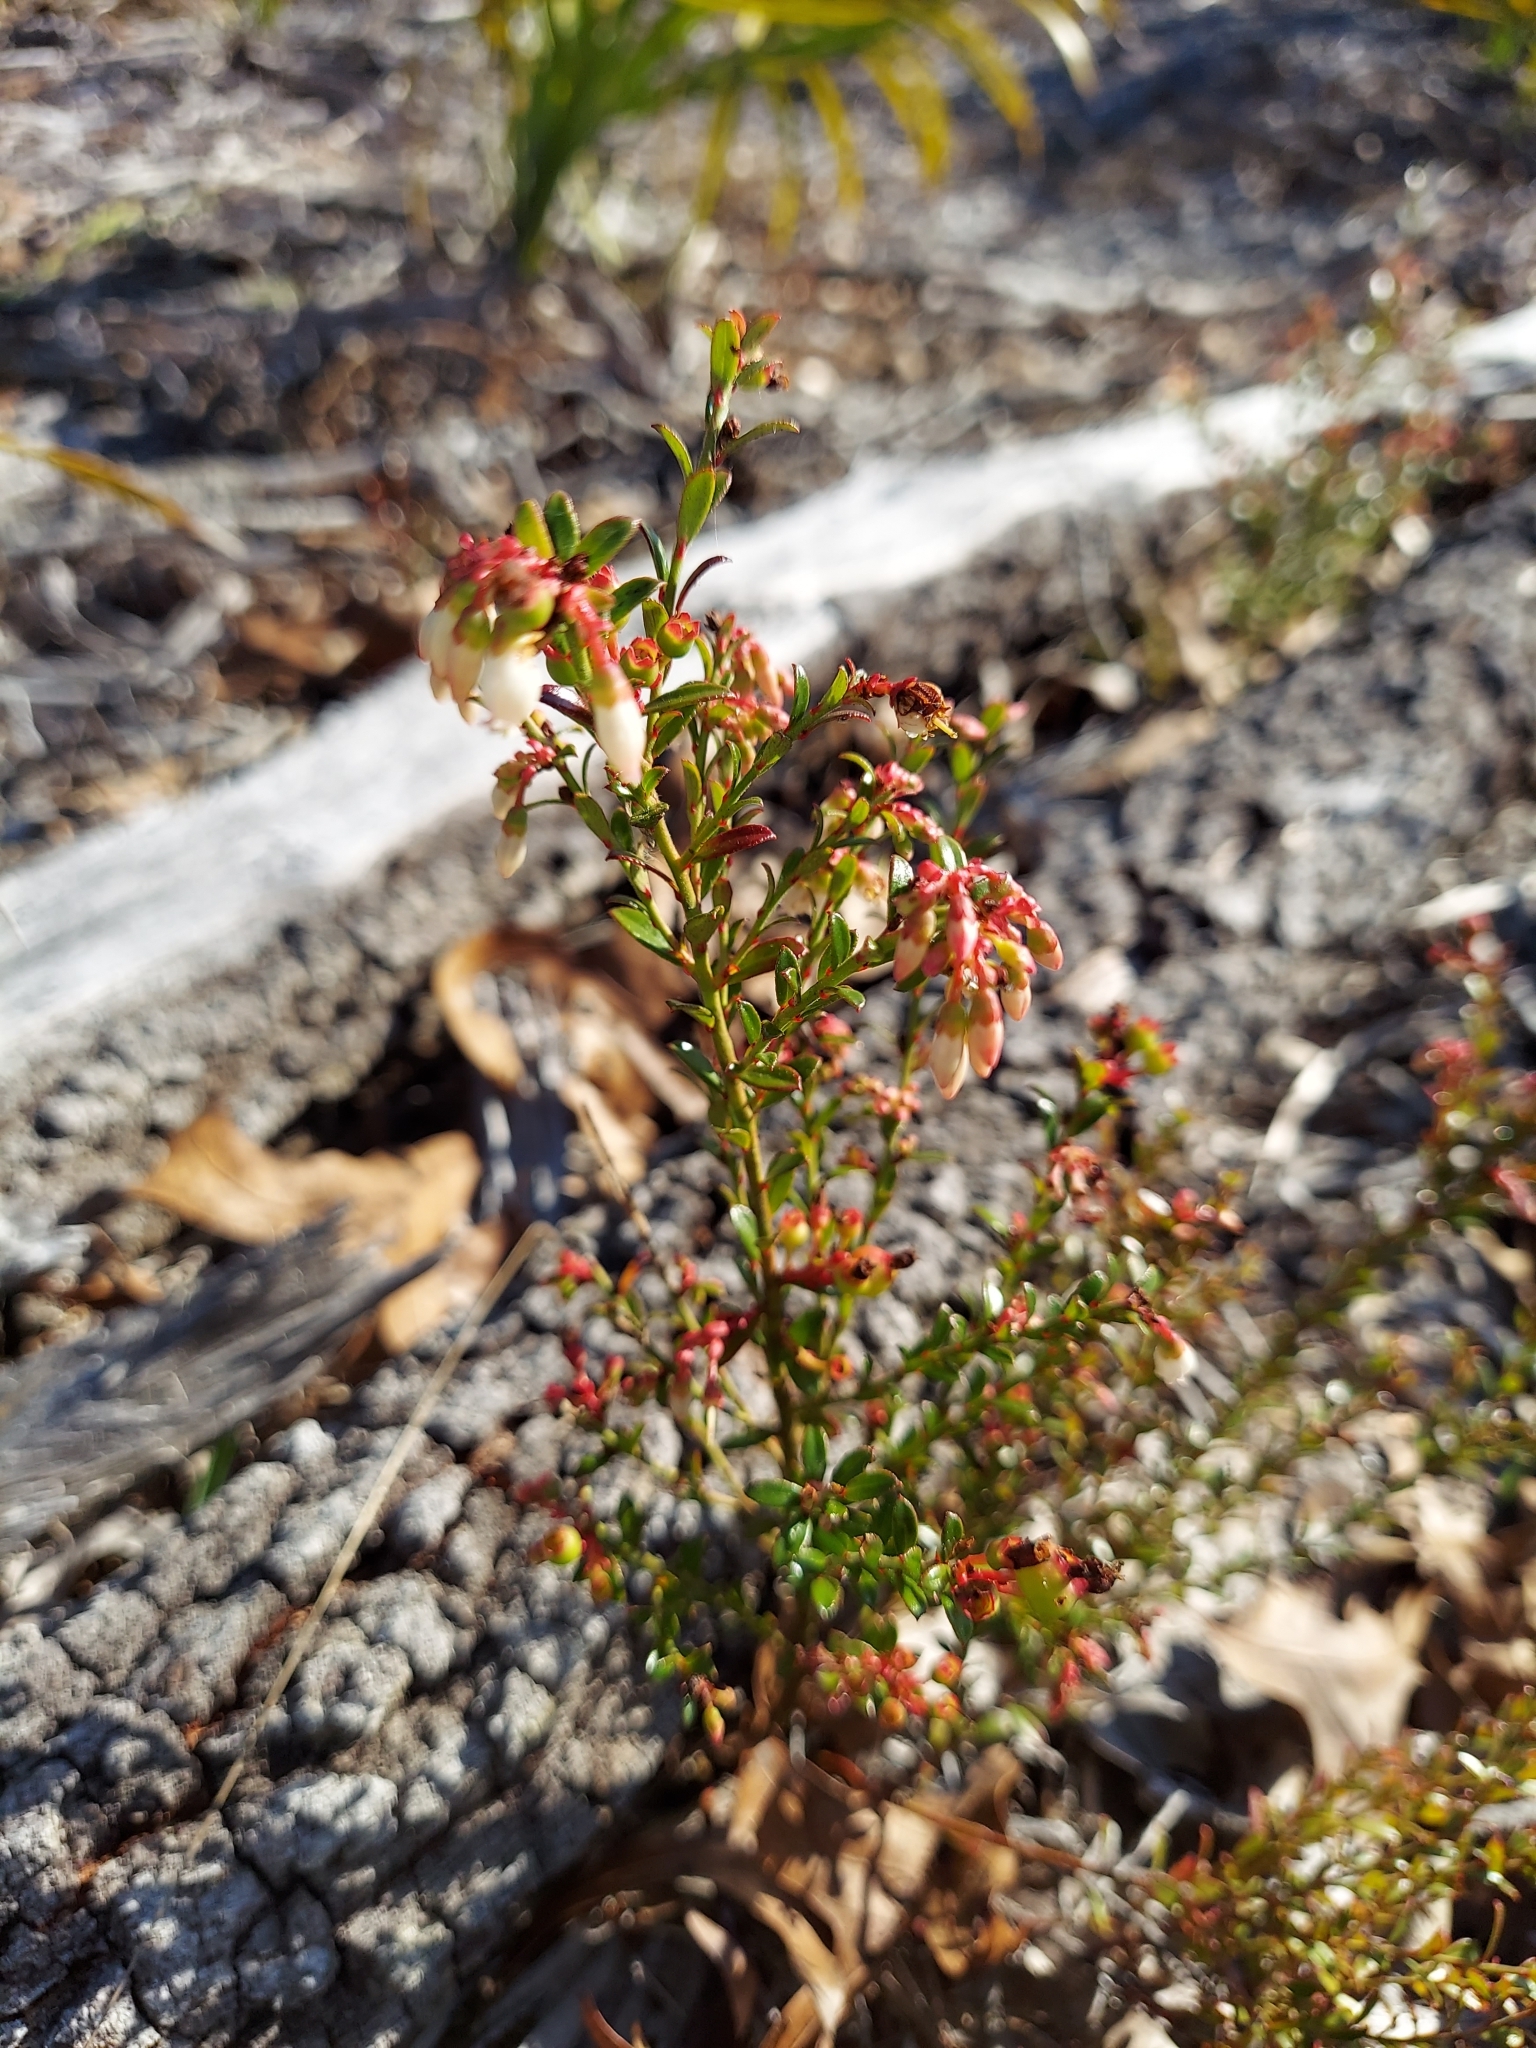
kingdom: Plantae
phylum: Tracheophyta
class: Magnoliopsida
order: Ericales
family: Ericaceae
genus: Vaccinium
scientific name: Vaccinium myrsinites
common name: Evergreen blueberry
